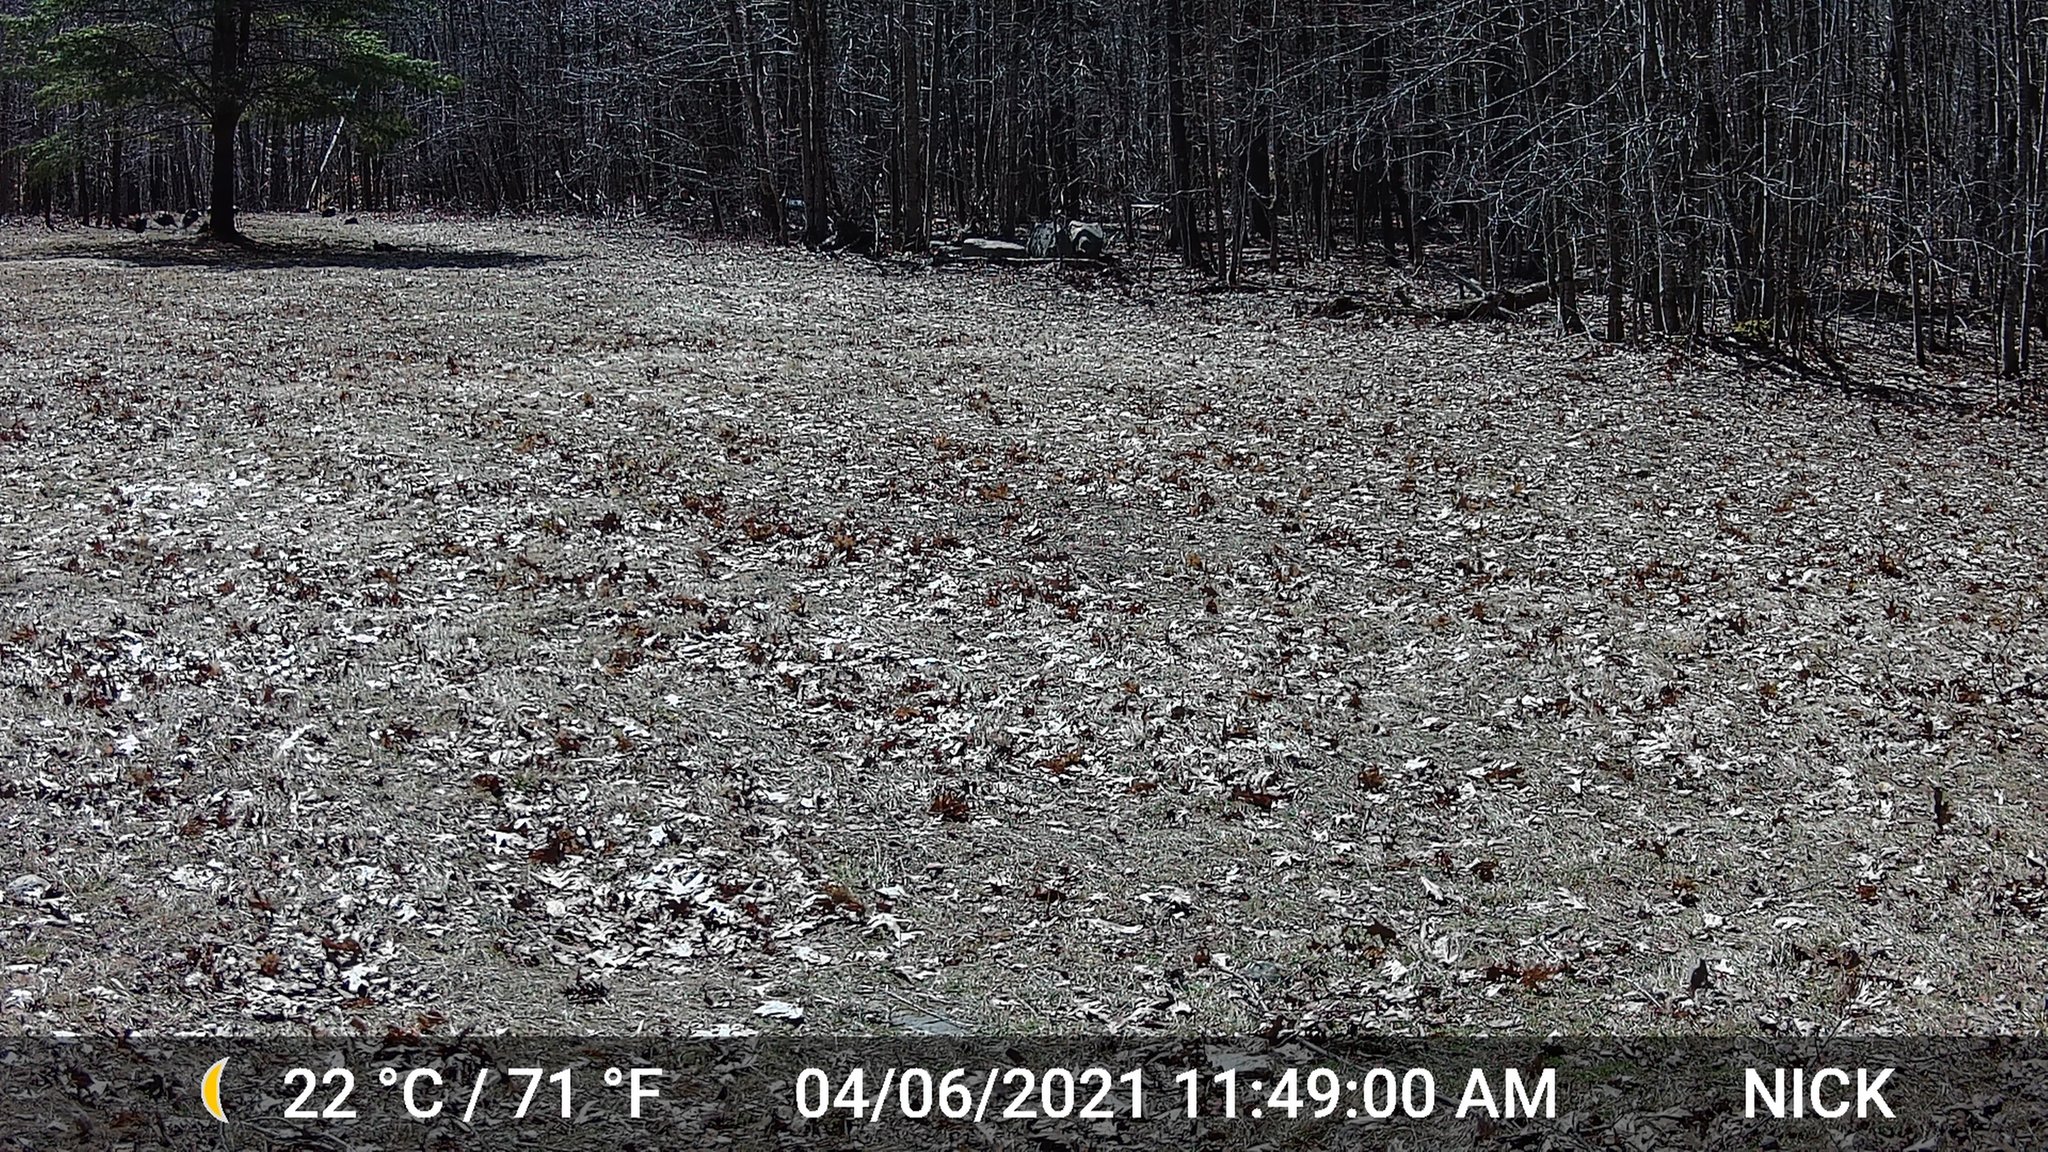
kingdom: Animalia
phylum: Chordata
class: Aves
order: Galliformes
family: Phasianidae
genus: Meleagris
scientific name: Meleagris gallopavo
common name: Wild turkey
